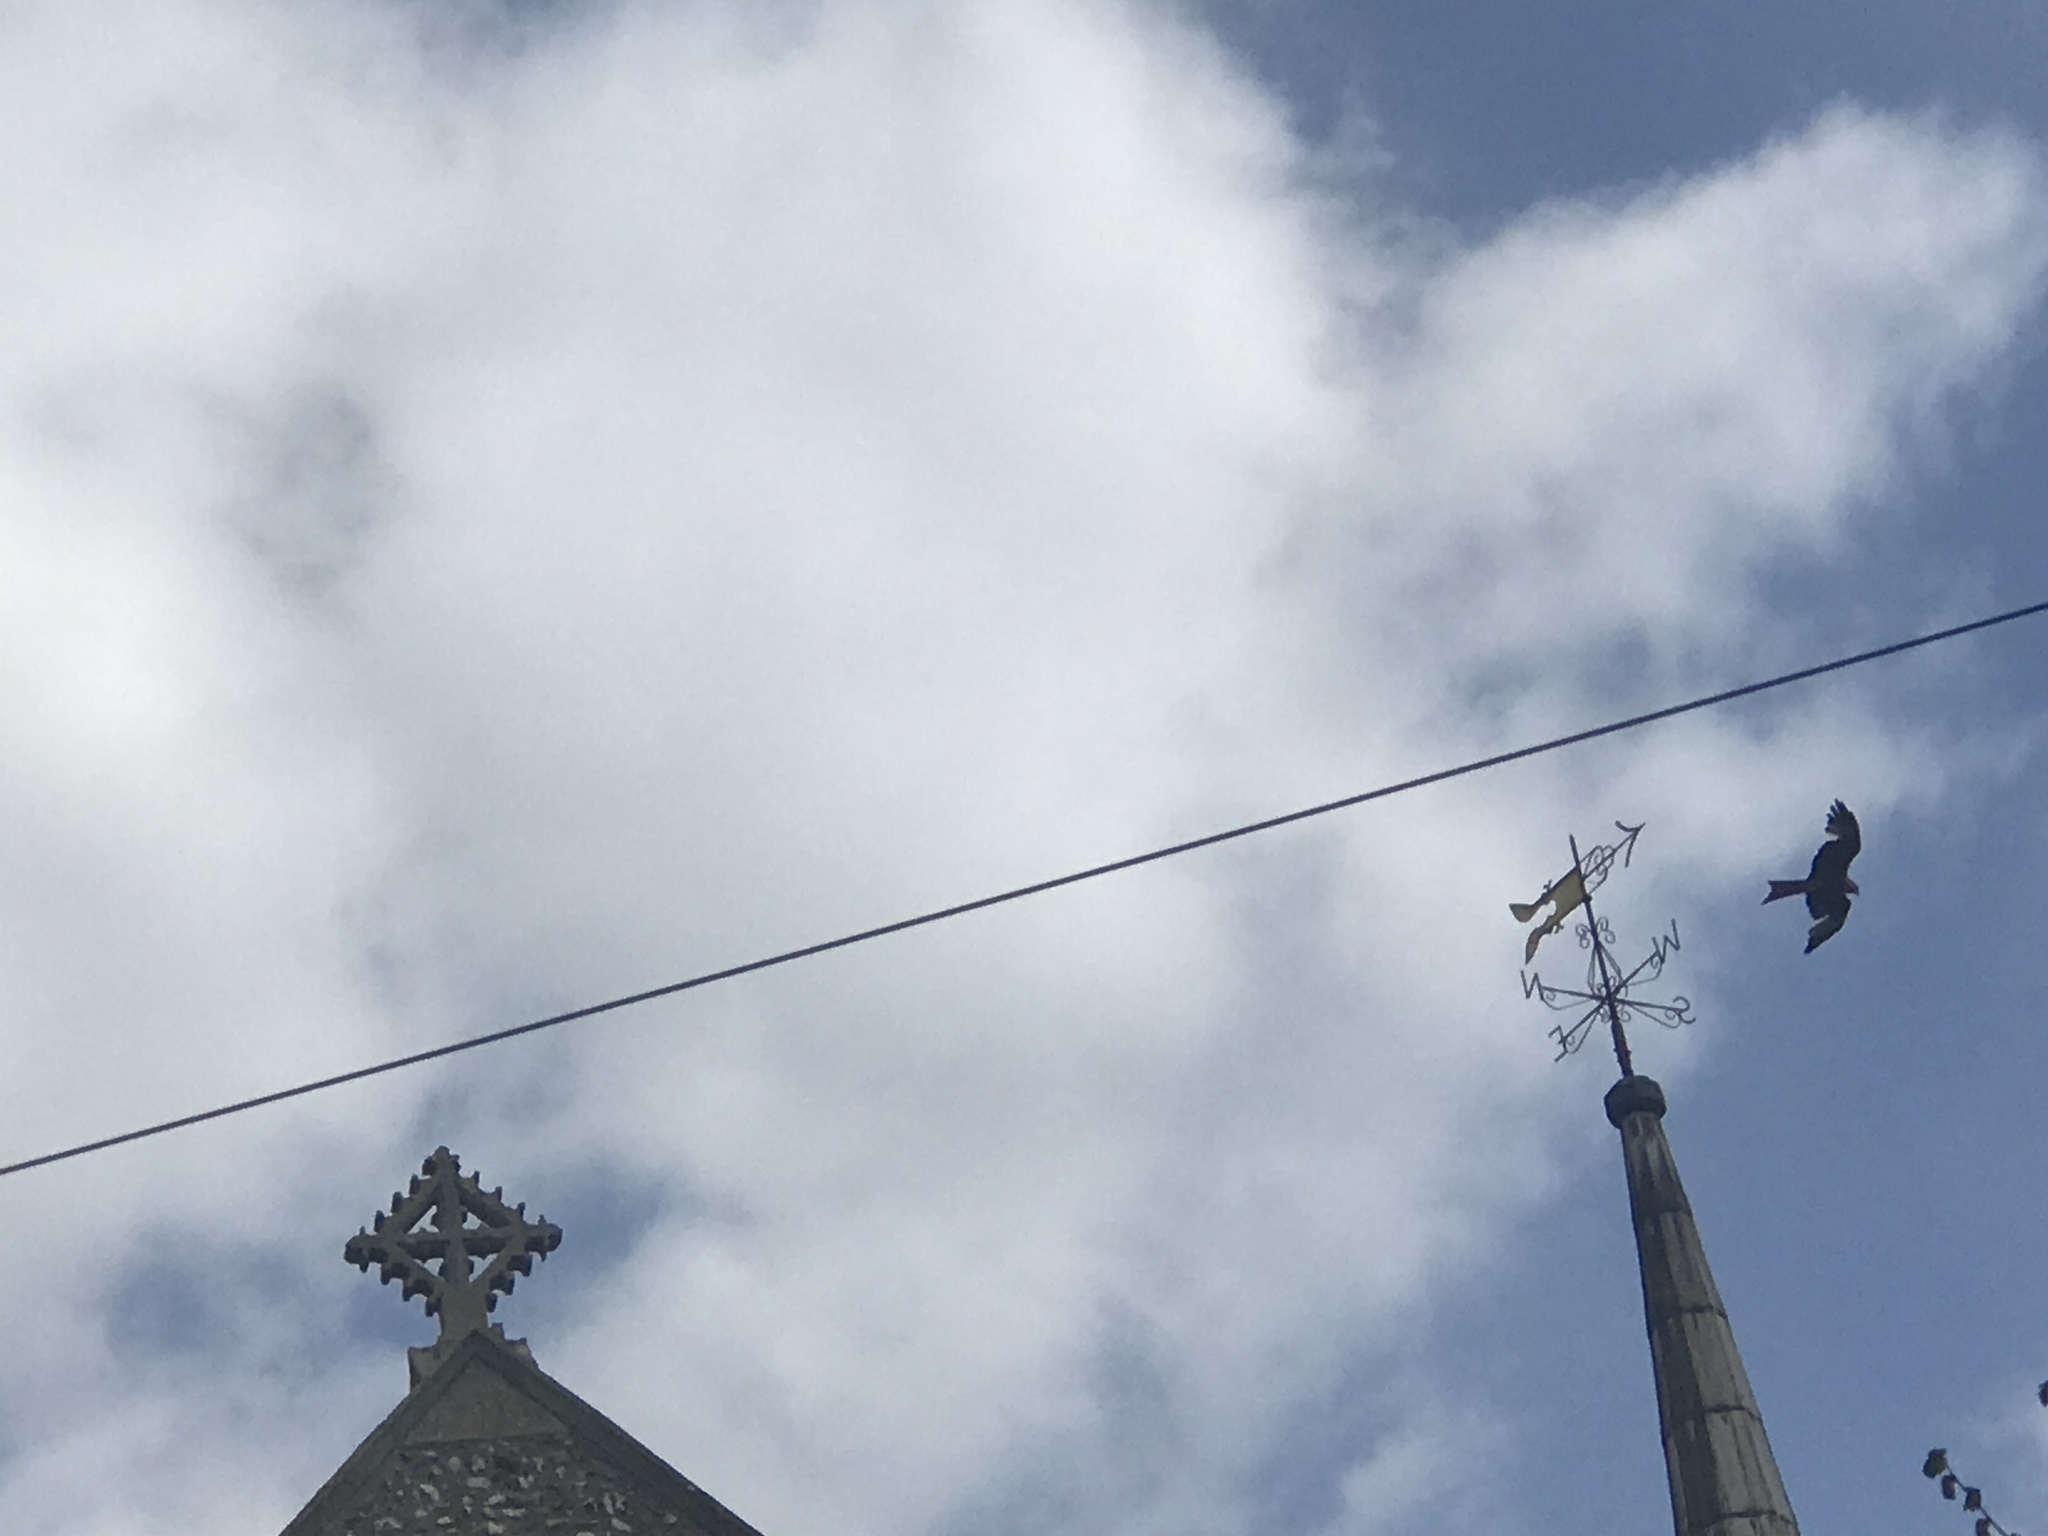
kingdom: Animalia
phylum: Chordata
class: Aves
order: Accipitriformes
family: Accipitridae
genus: Milvus
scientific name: Milvus milvus
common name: Red kite
